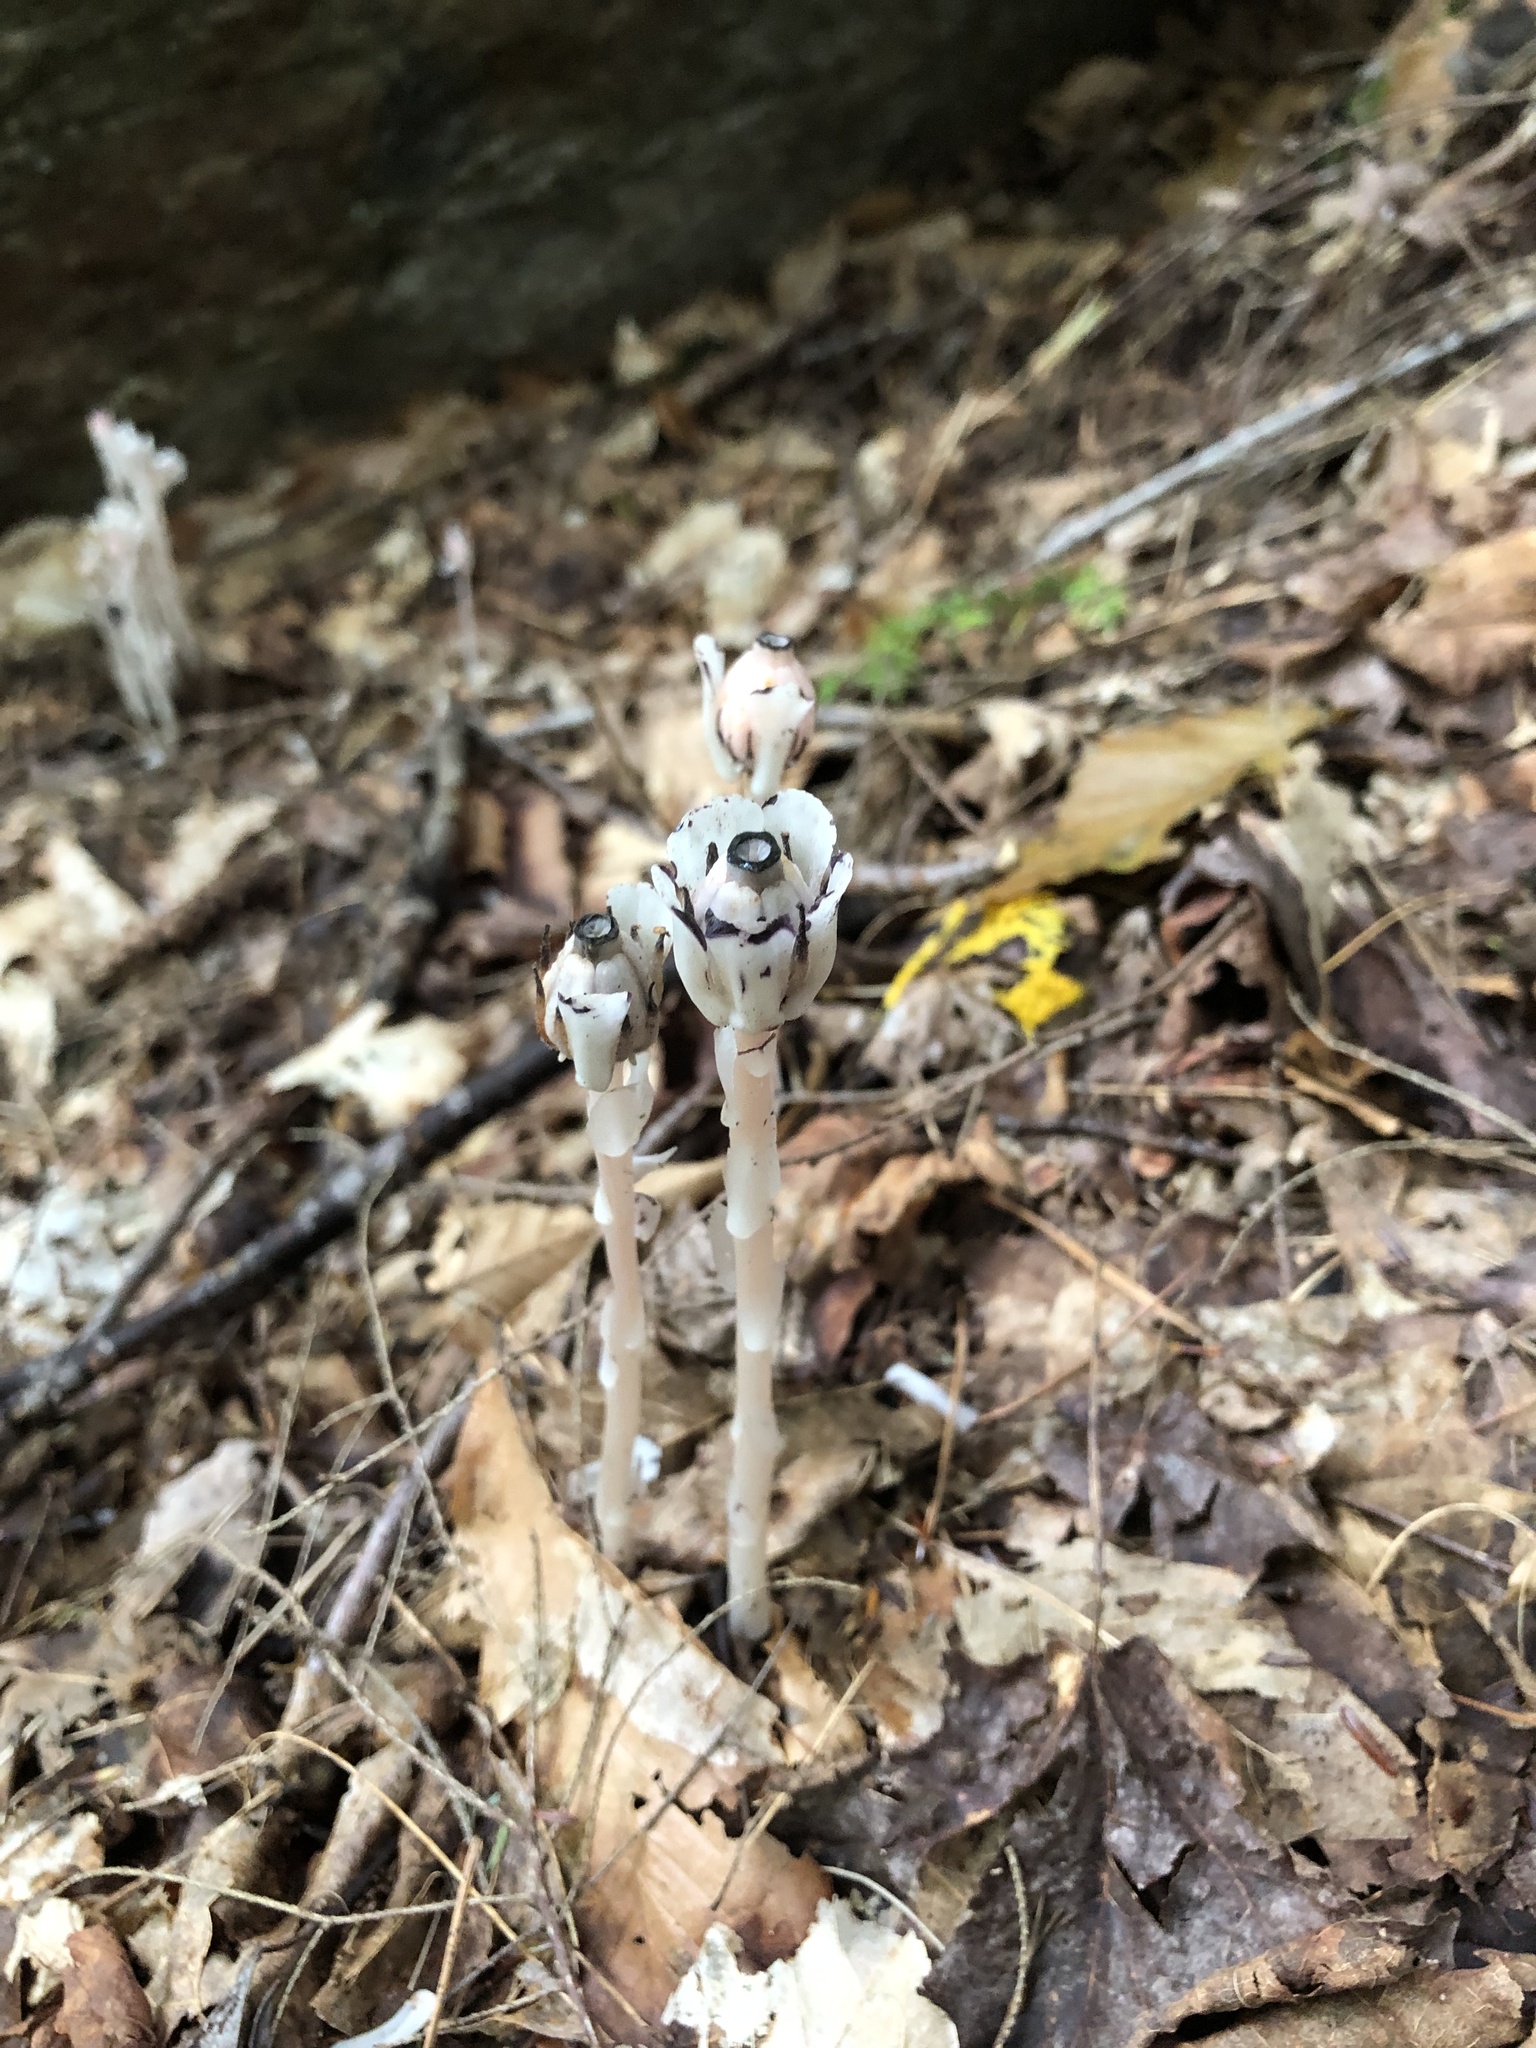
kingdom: Plantae
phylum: Tracheophyta
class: Magnoliopsida
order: Ericales
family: Ericaceae
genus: Monotropa
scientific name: Monotropa uniflora
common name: Convulsion root
